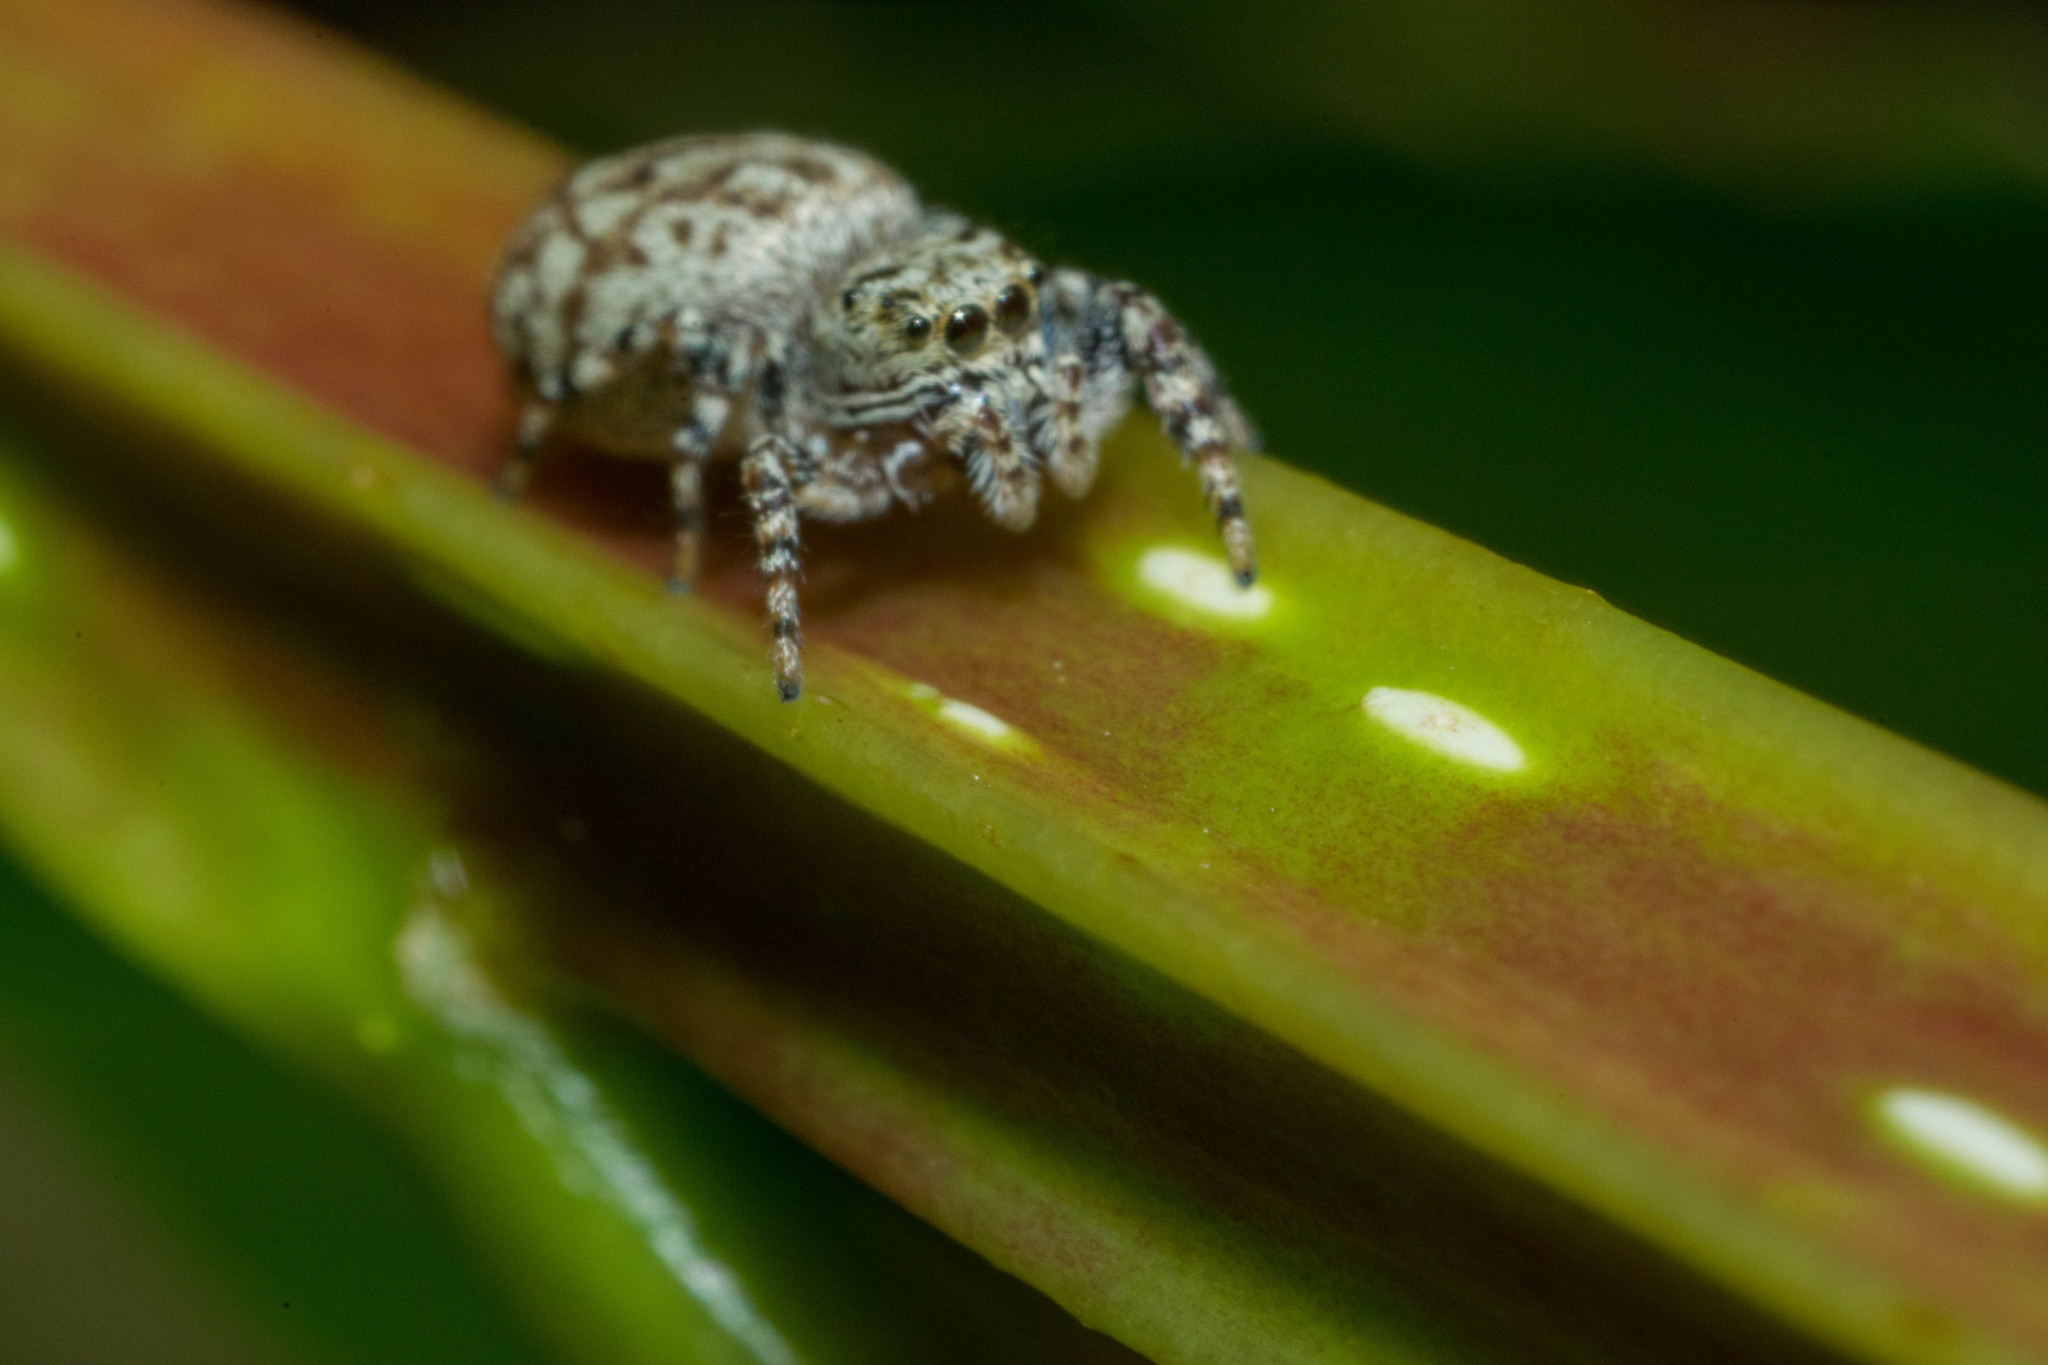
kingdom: Animalia
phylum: Arthropoda
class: Arachnida
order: Araneae
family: Salticidae
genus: Pelegrina
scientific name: Pelegrina galathea
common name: Jumping spiders
